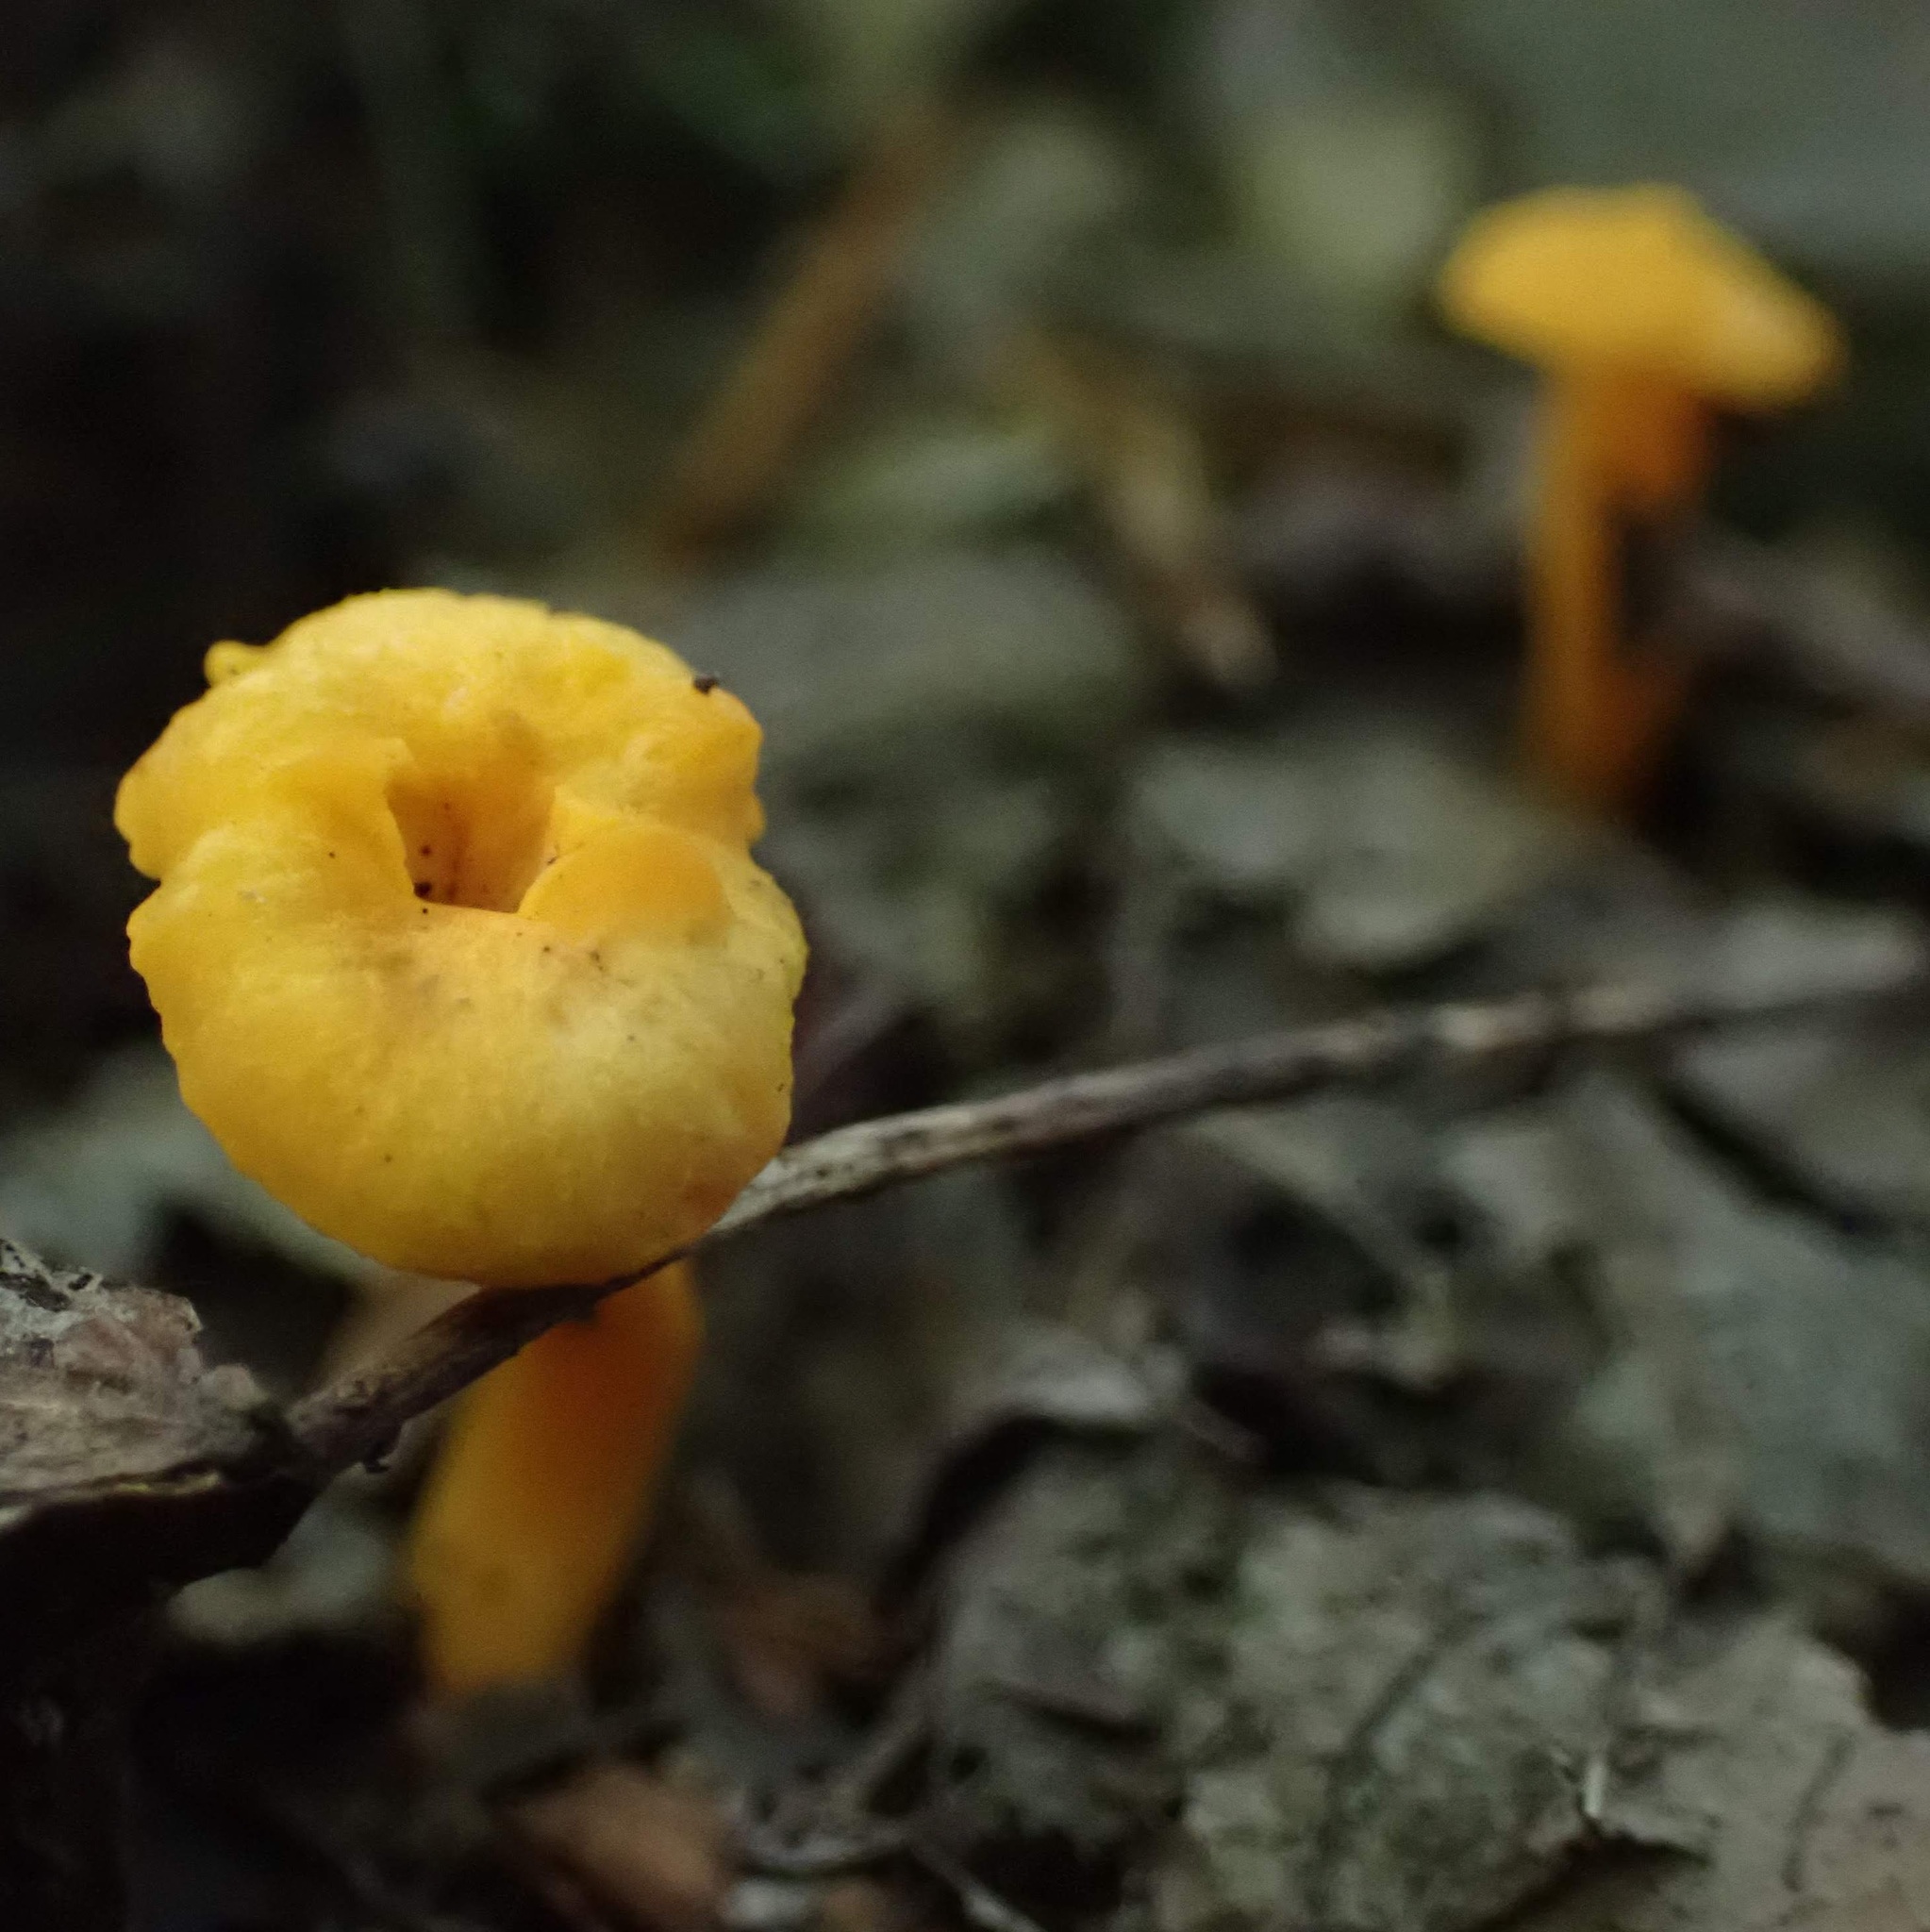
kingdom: Fungi
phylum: Basidiomycota
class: Agaricomycetes
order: Cantharellales
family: Hydnaceae
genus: Cantharellus
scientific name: Cantharellus minor
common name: Small chanterelle
